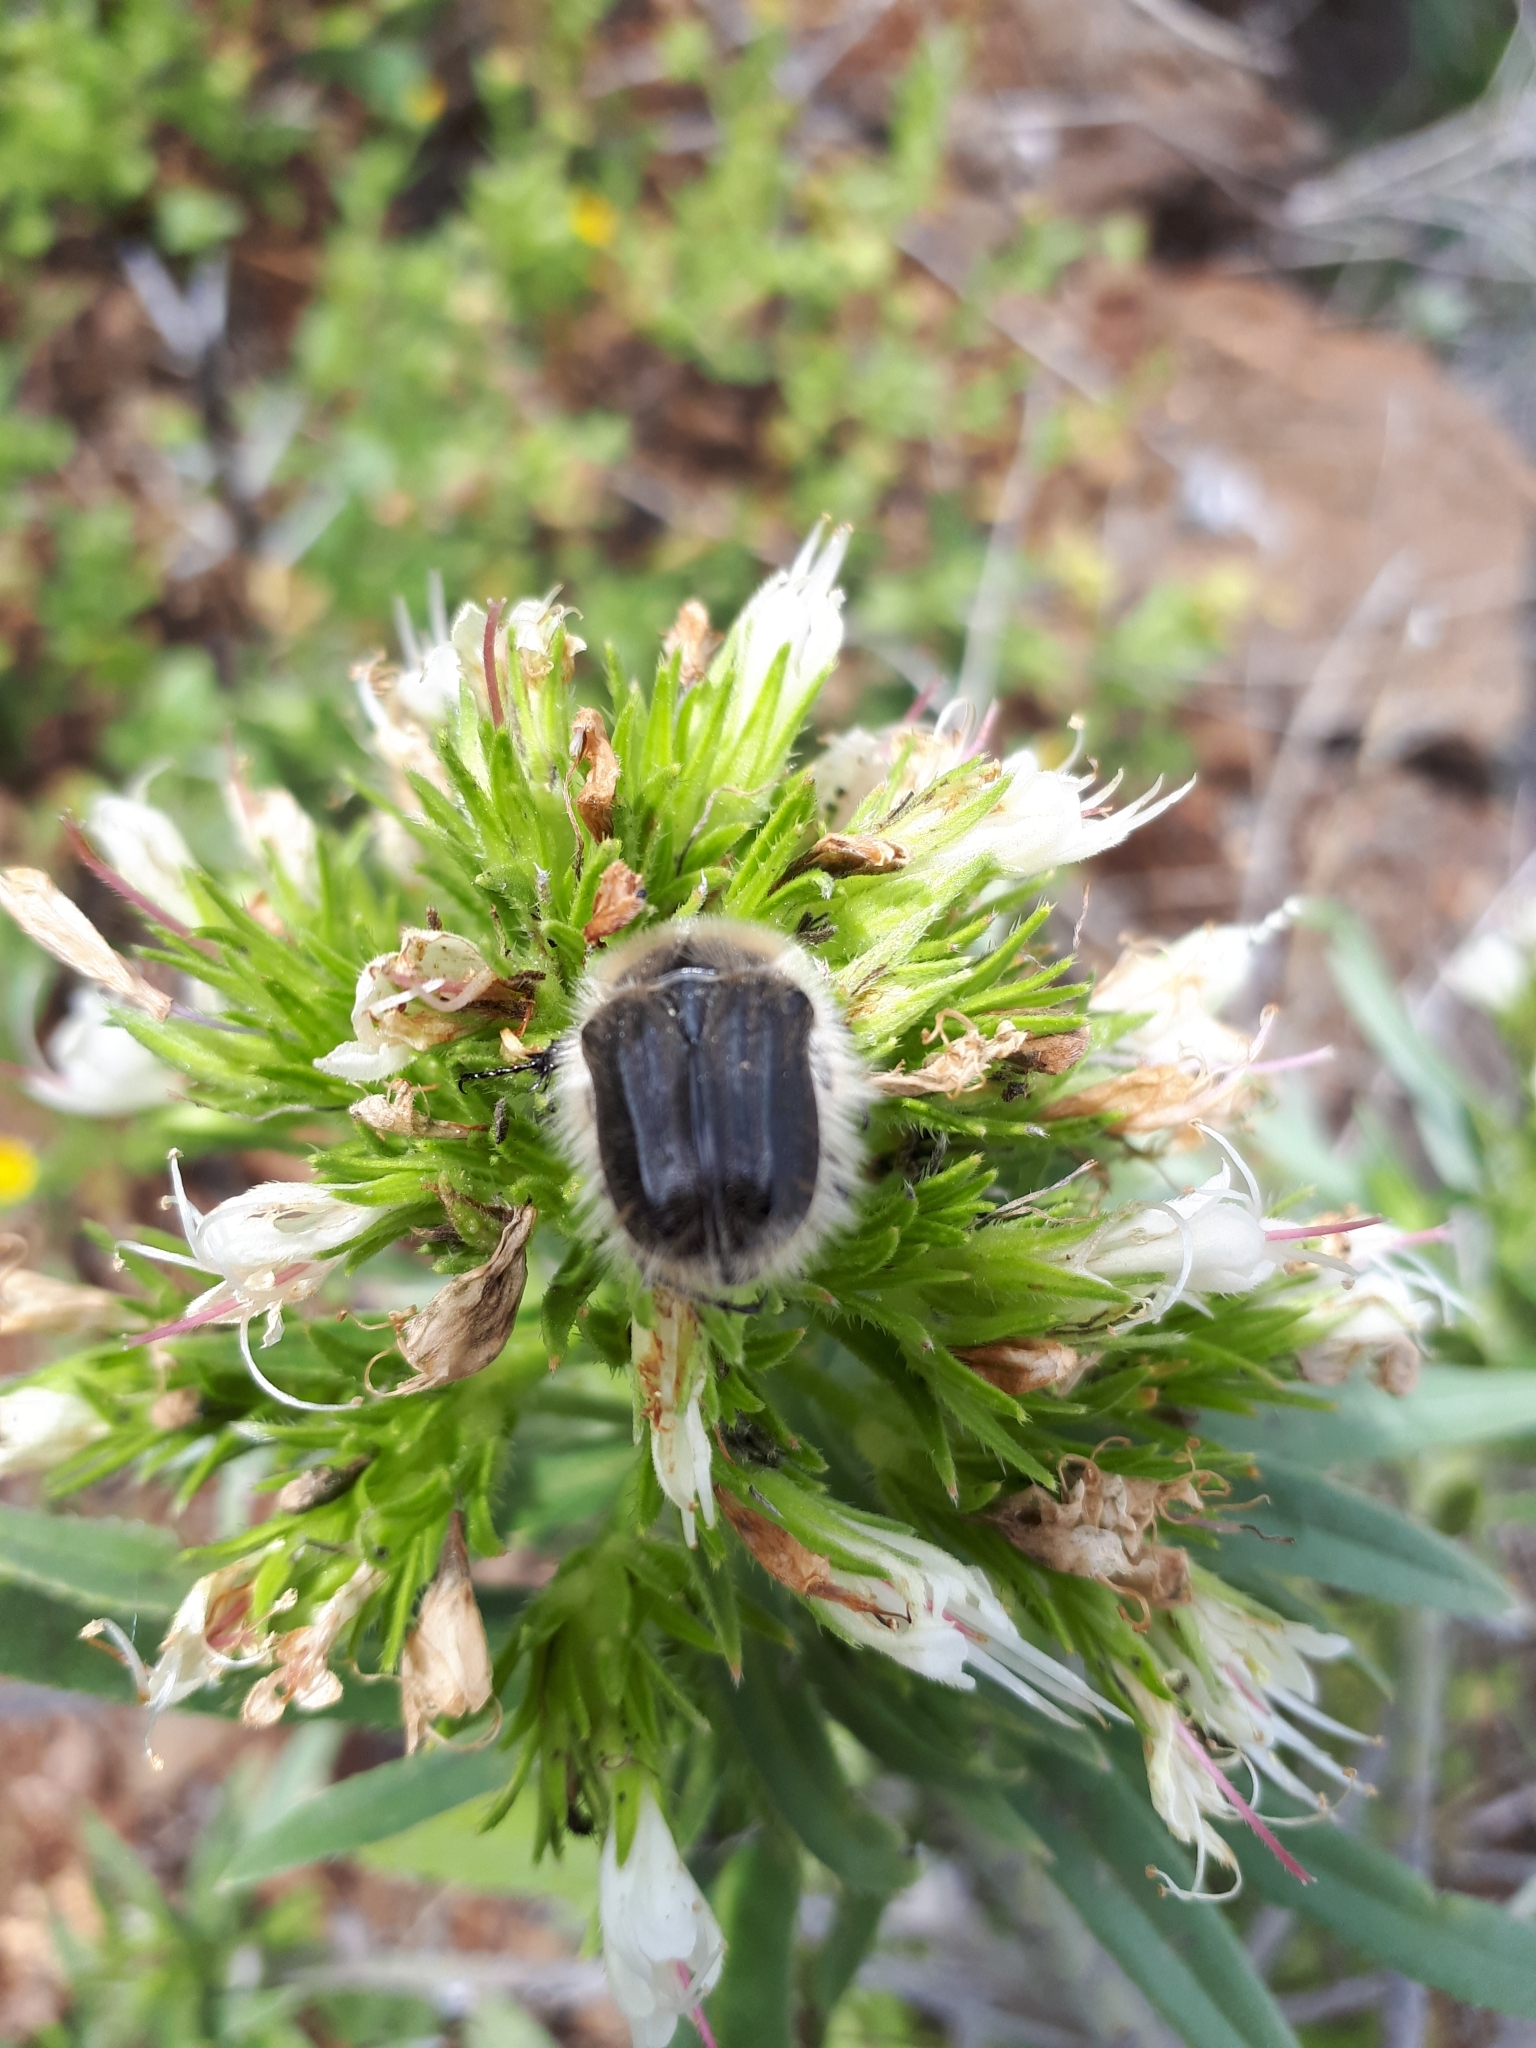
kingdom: Animalia
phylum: Arthropoda
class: Insecta
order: Coleoptera
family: Scarabaeidae
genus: Tropinota
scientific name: Tropinota squalida
